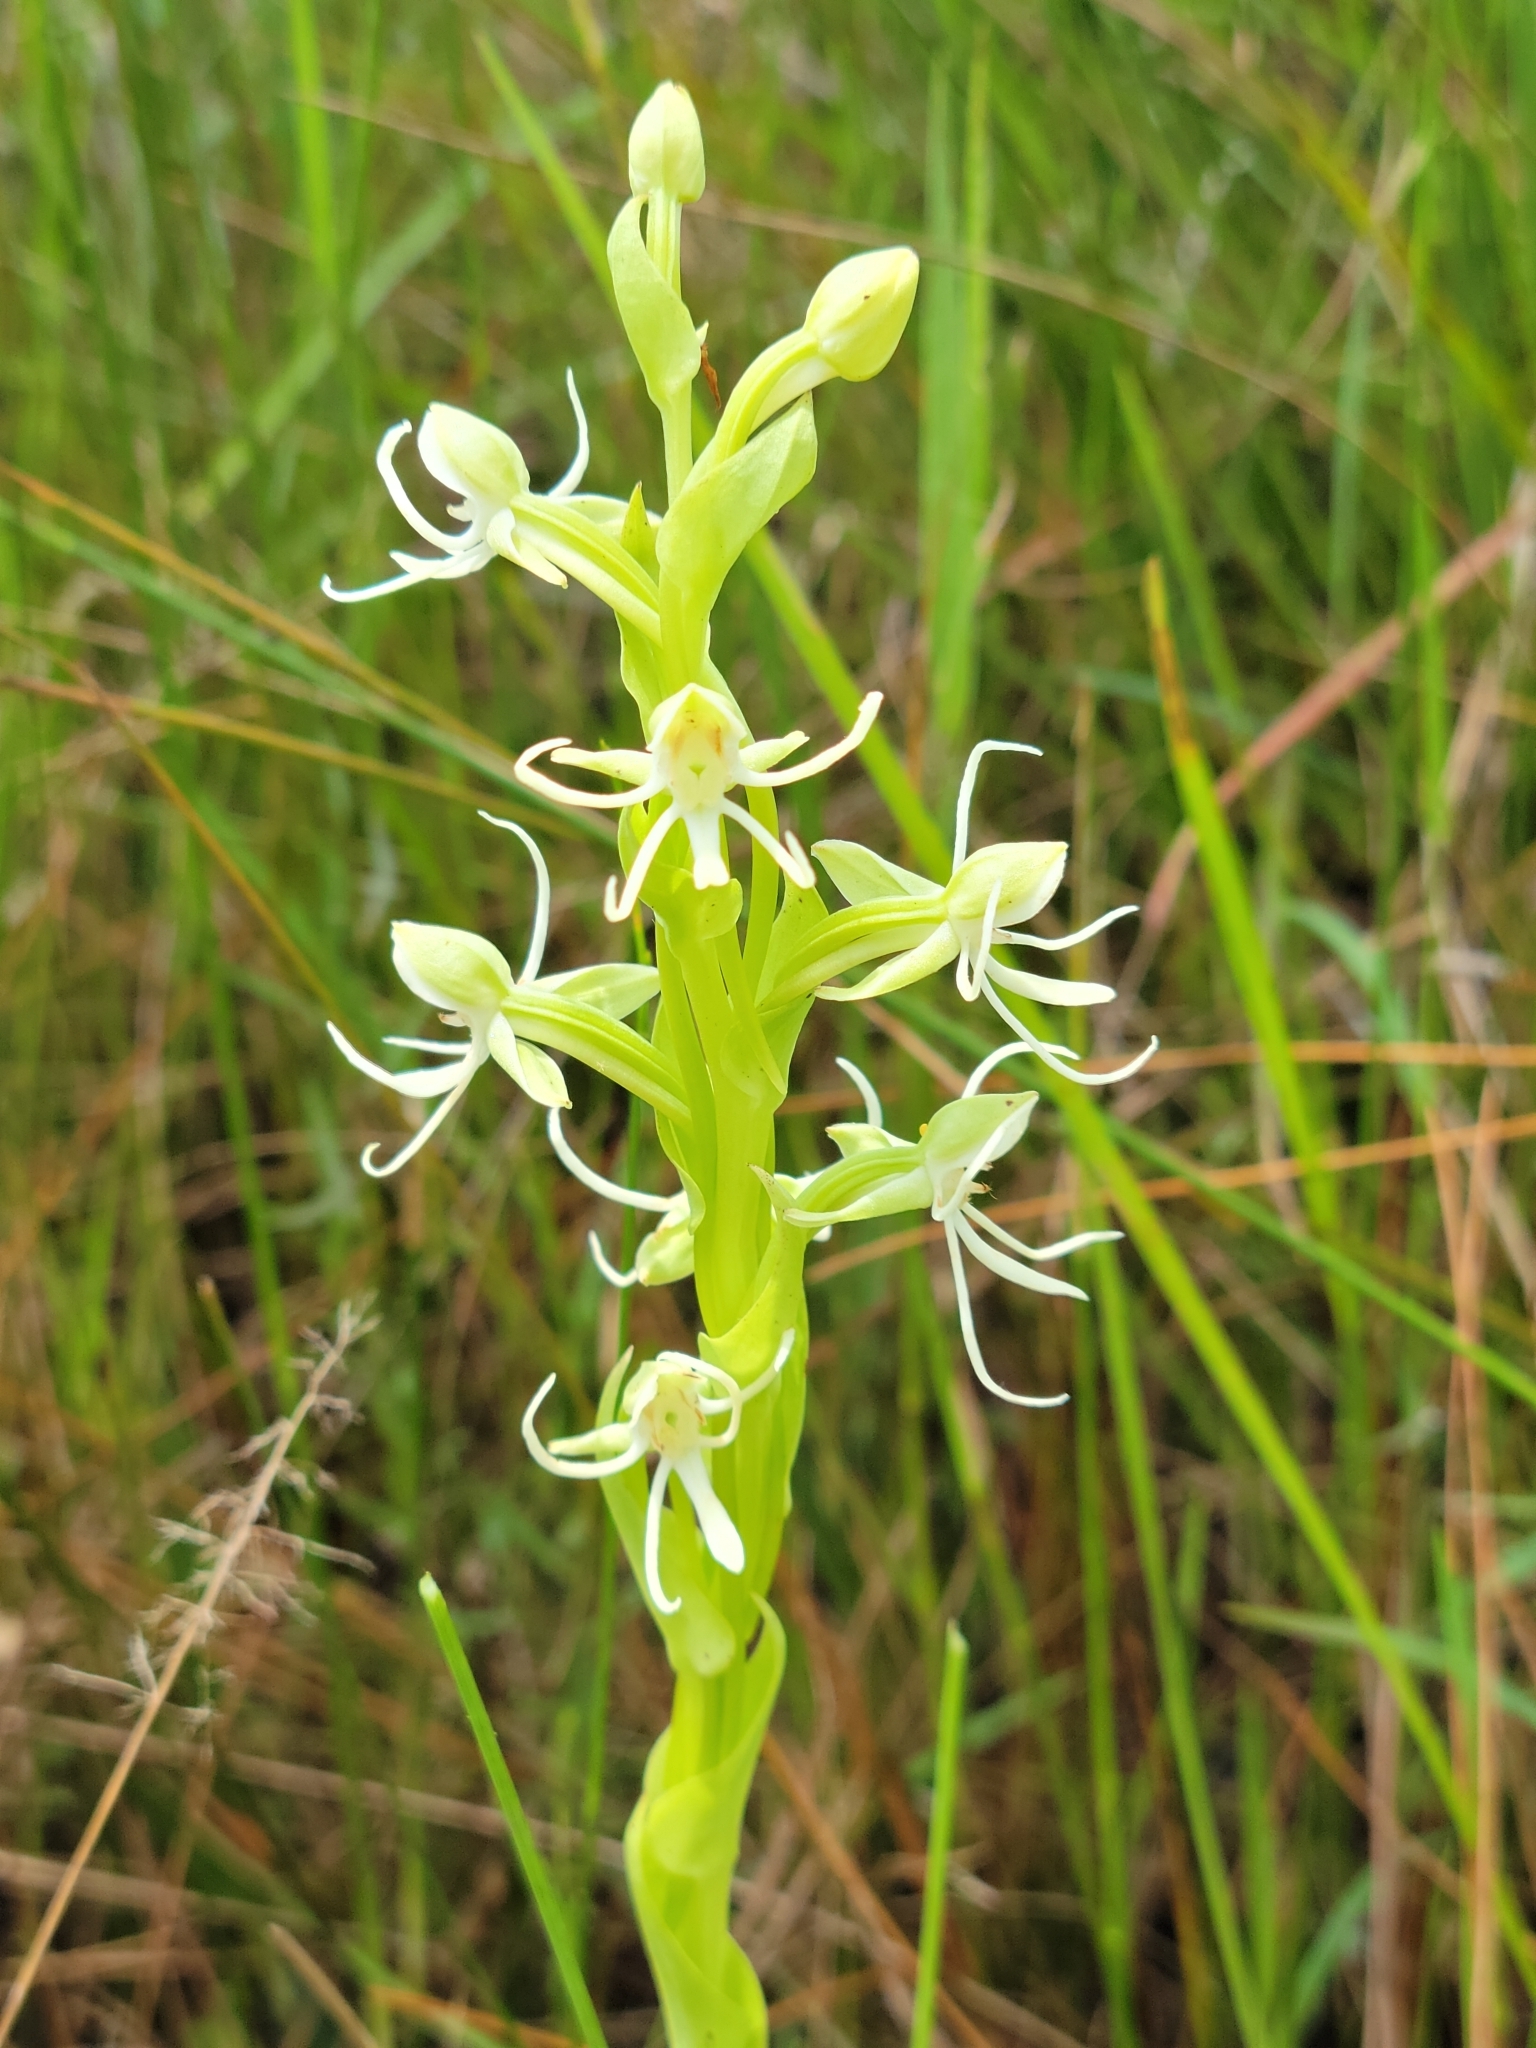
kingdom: Plantae
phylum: Tracheophyta
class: Liliopsida
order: Asparagales
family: Orchidaceae
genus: Habenaria
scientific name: Habenaria quinqueseta
